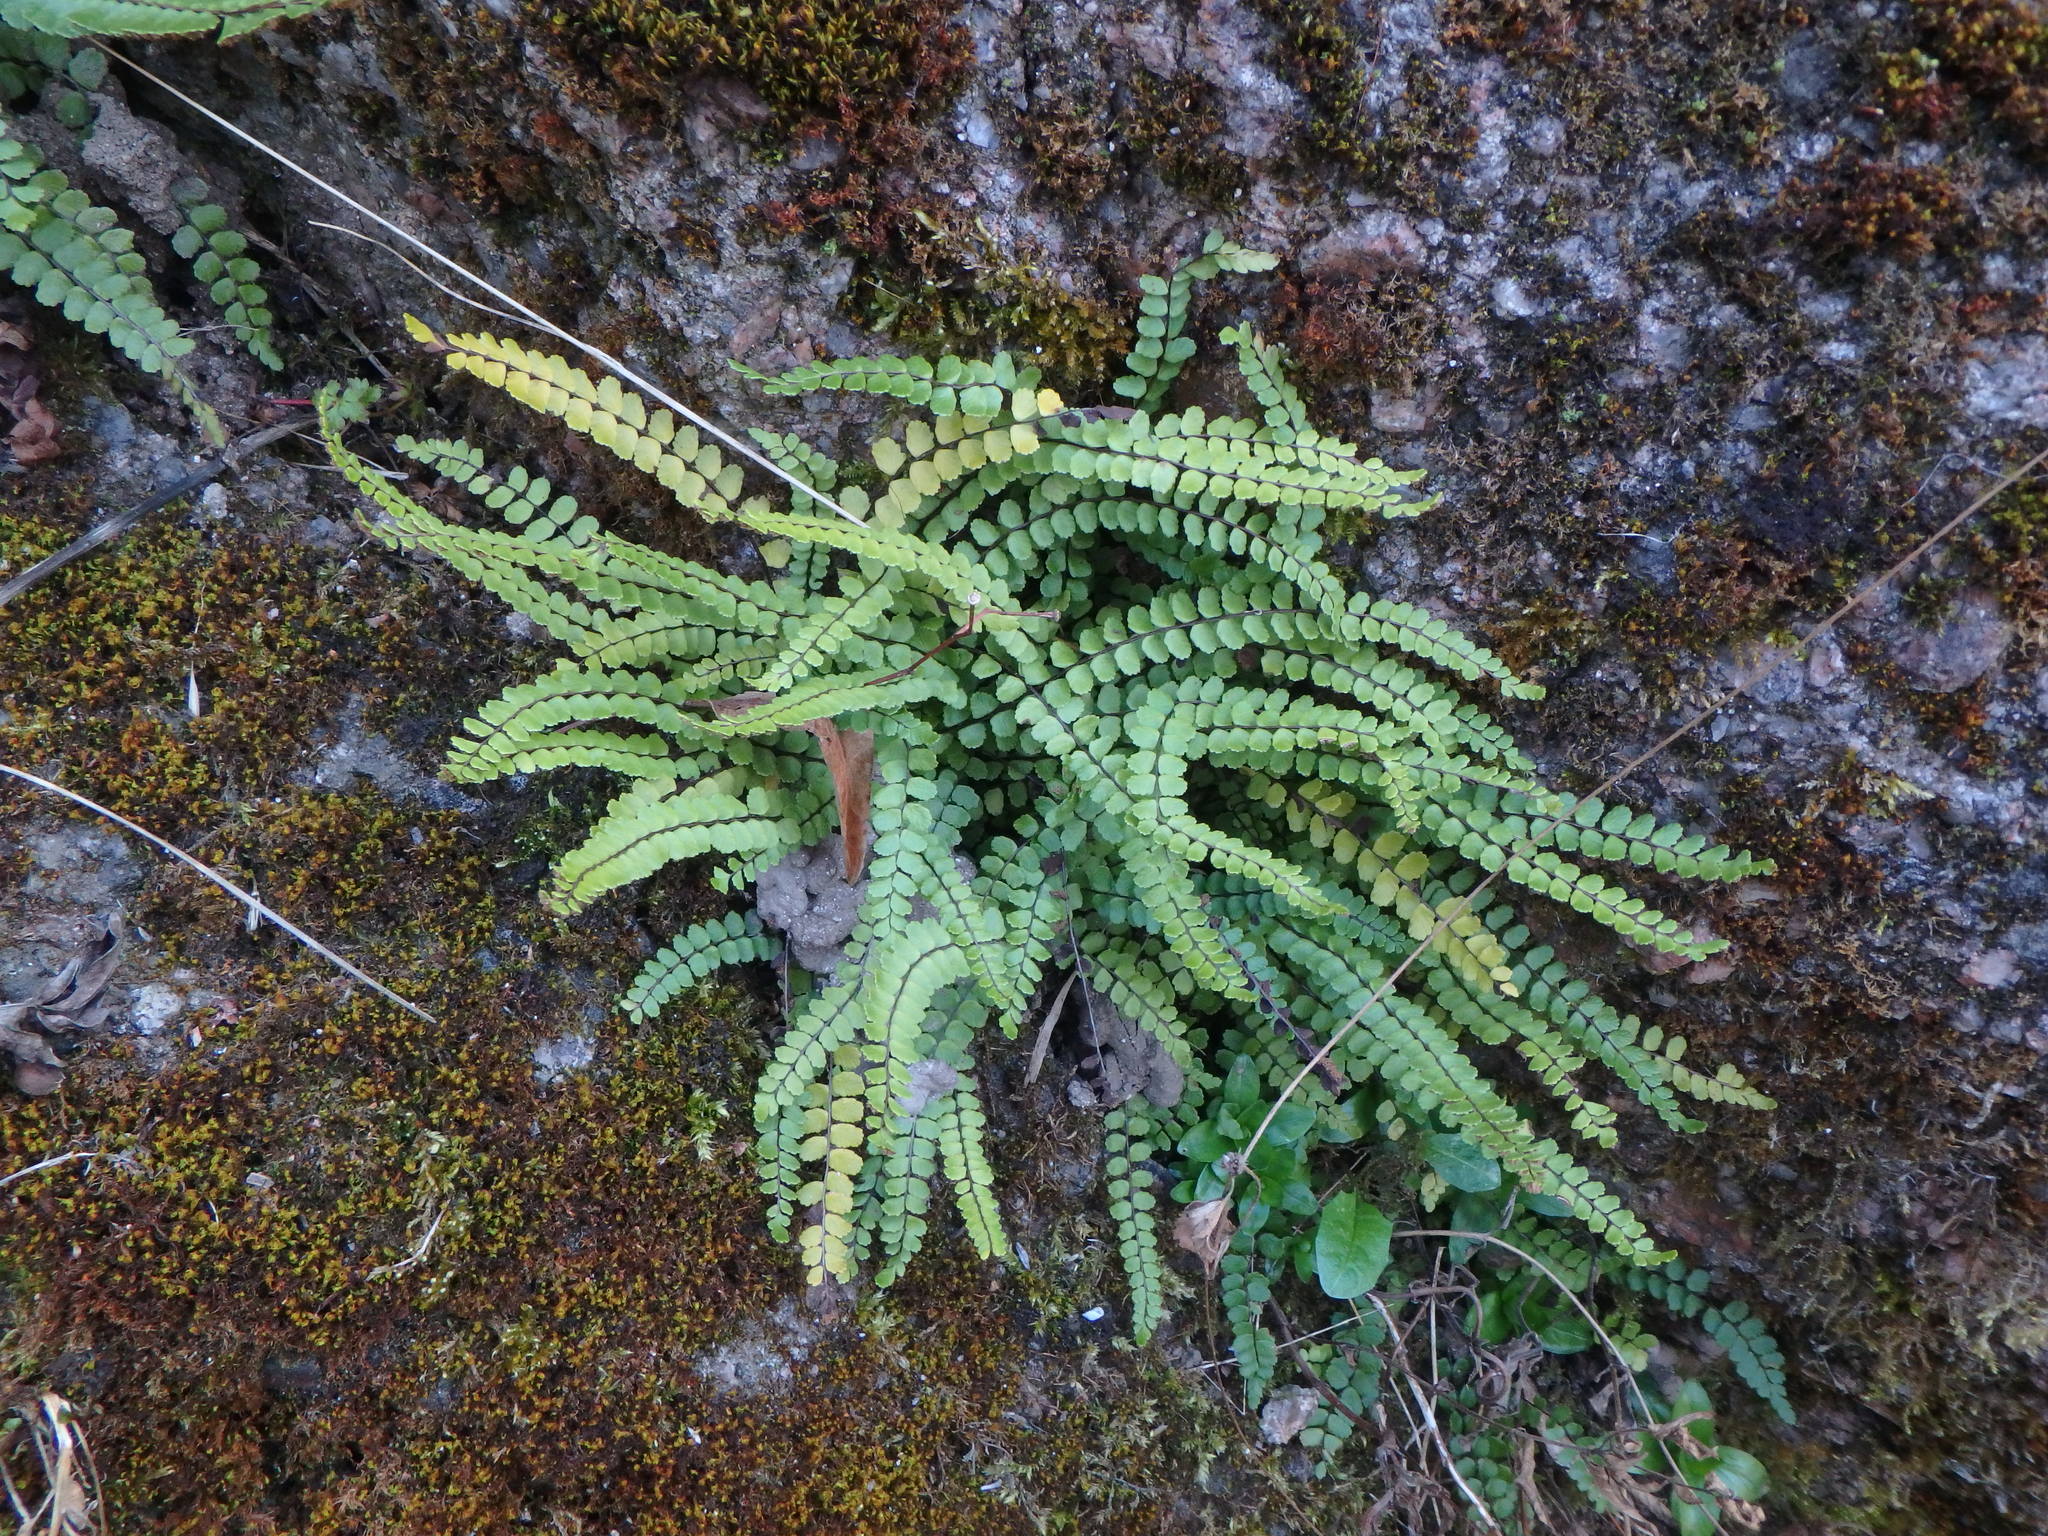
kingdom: Plantae
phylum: Tracheophyta
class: Polypodiopsida
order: Polypodiales
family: Aspleniaceae
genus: Asplenium
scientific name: Asplenium trichomanes
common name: Maidenhair spleenwort
